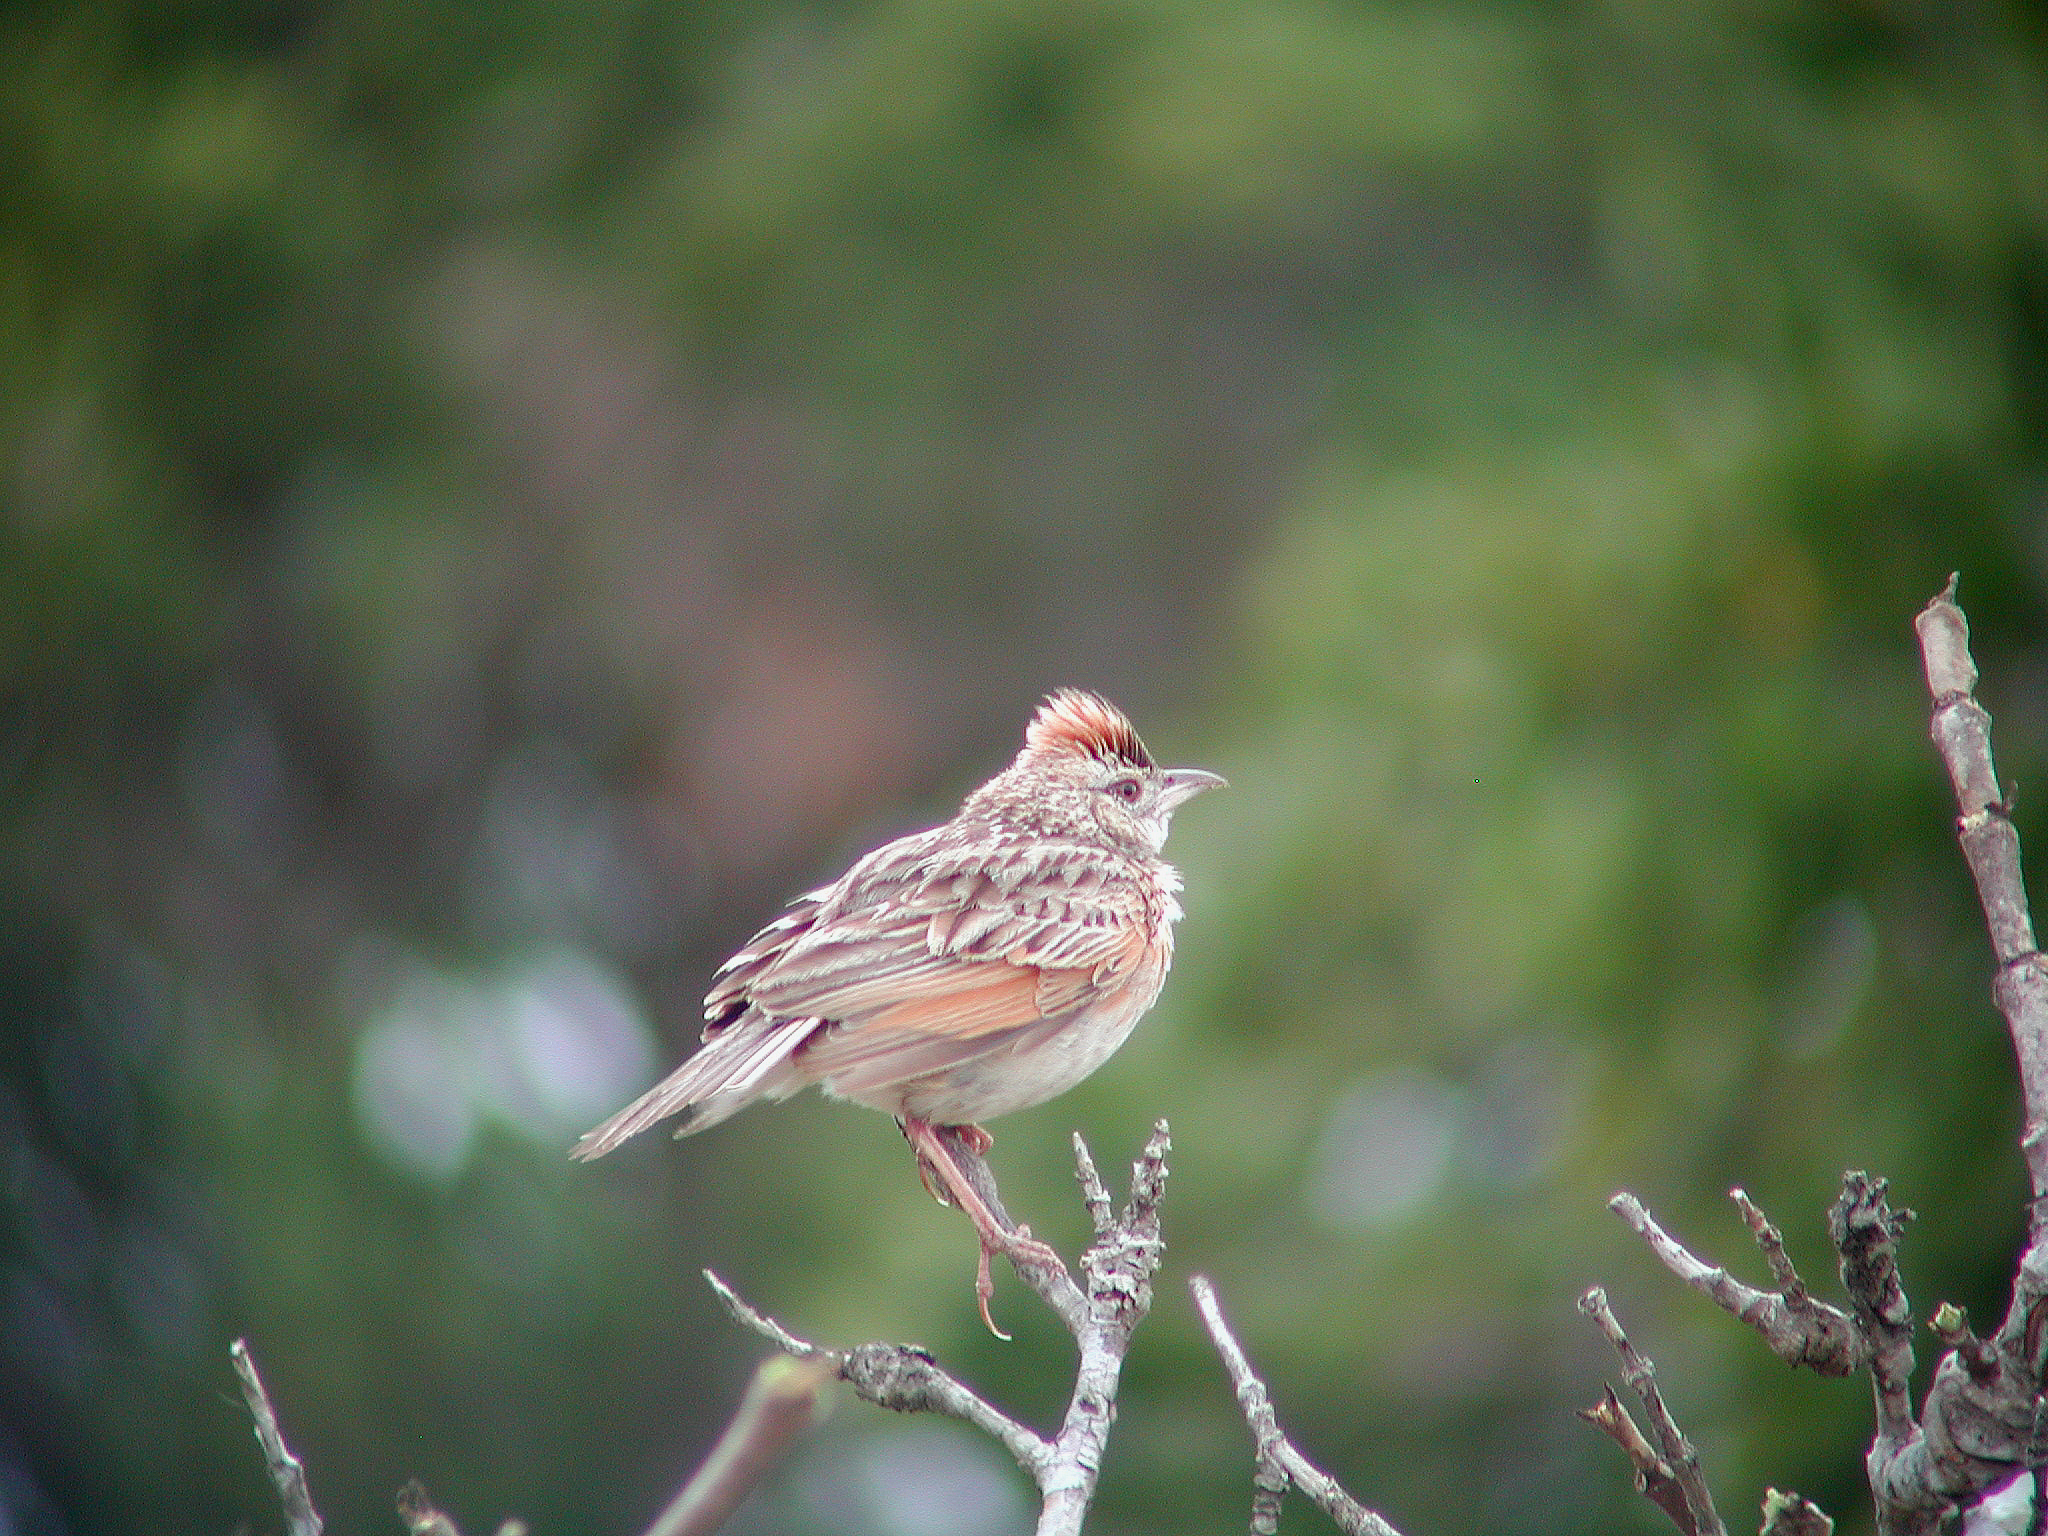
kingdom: Animalia
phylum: Chordata
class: Aves
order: Passeriformes
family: Alaudidae
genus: Mirafra
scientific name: Mirafra africana
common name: Rufous-naped lark
